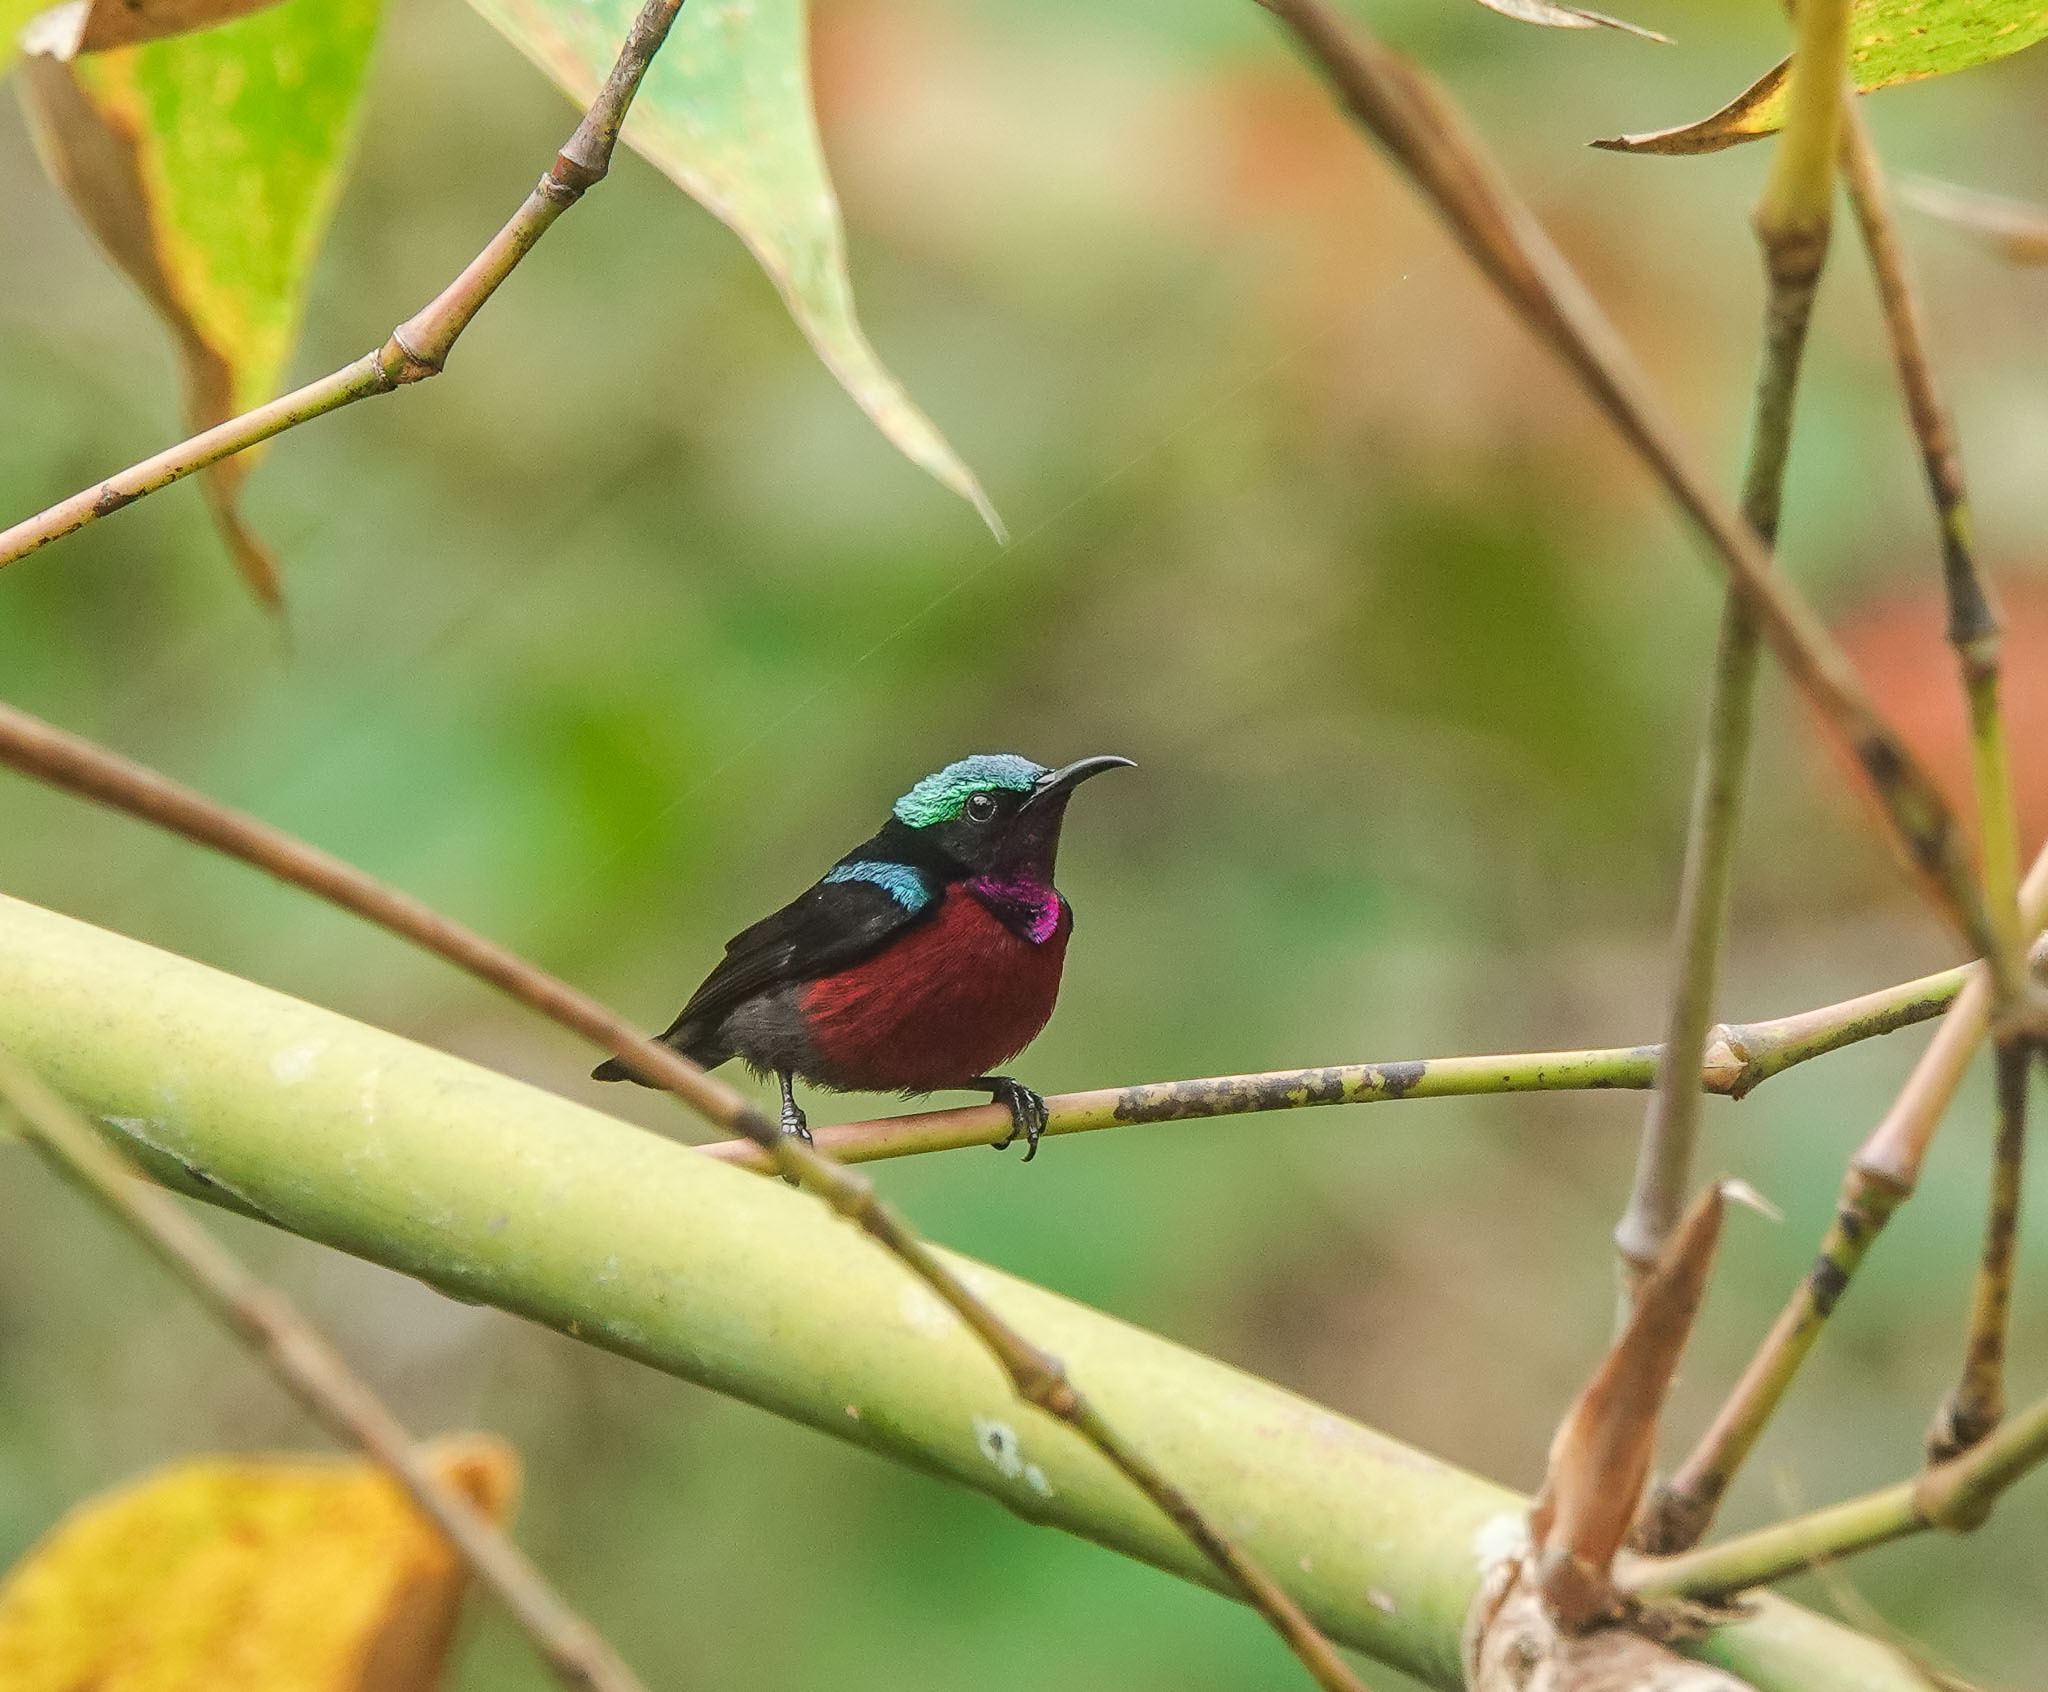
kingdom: Animalia
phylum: Chordata
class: Aves
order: Passeriformes
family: Nectariniidae
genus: Leptocoma
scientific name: Leptocoma brasiliana
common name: Van hasselt's sunbird
